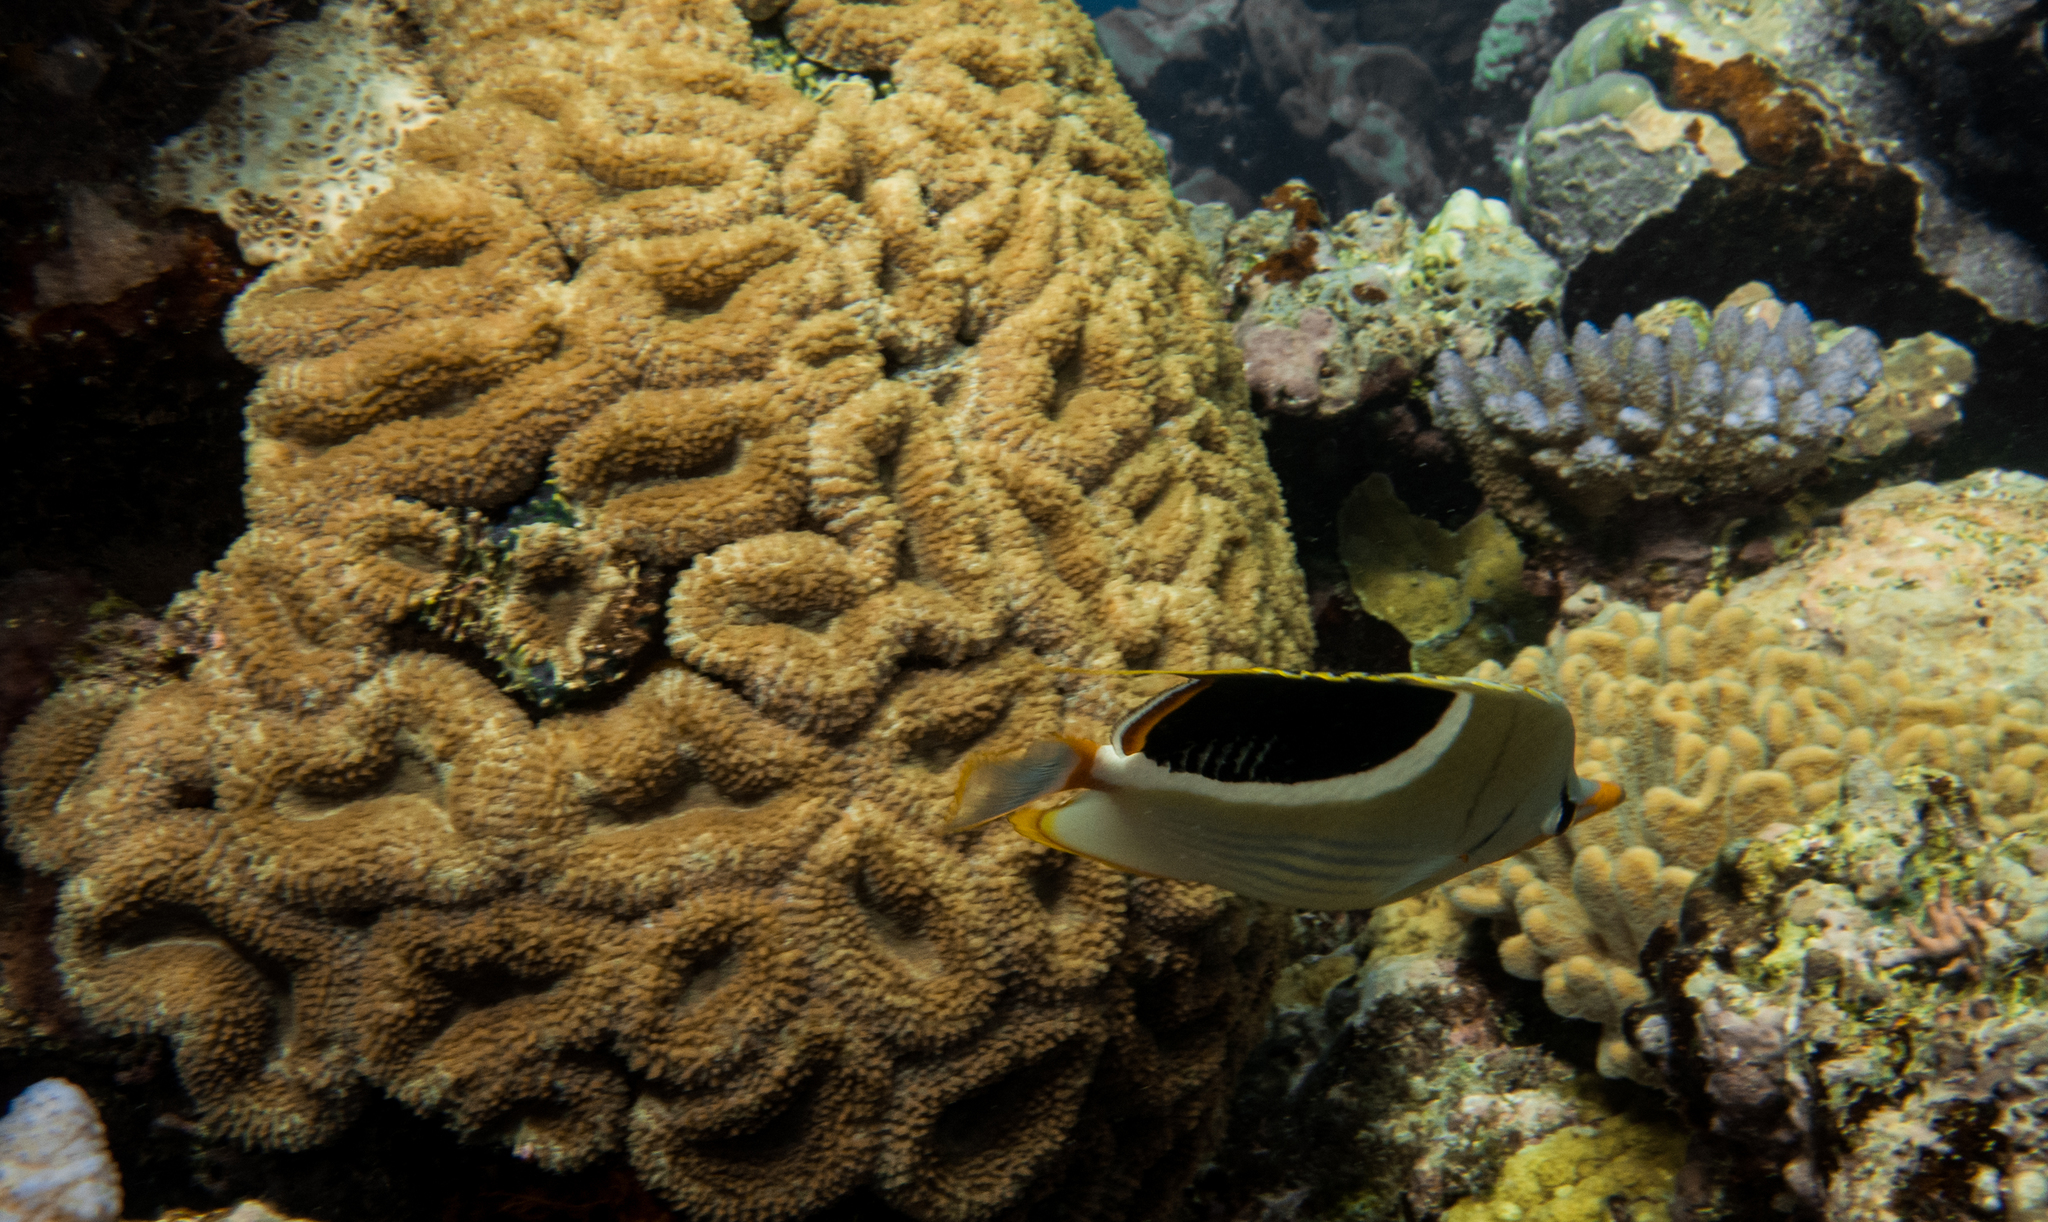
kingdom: Animalia
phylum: Chordata
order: Perciformes
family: Chaetodontidae
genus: Chaetodon
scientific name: Chaetodon ephippium
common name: Saddled butterflyfish
